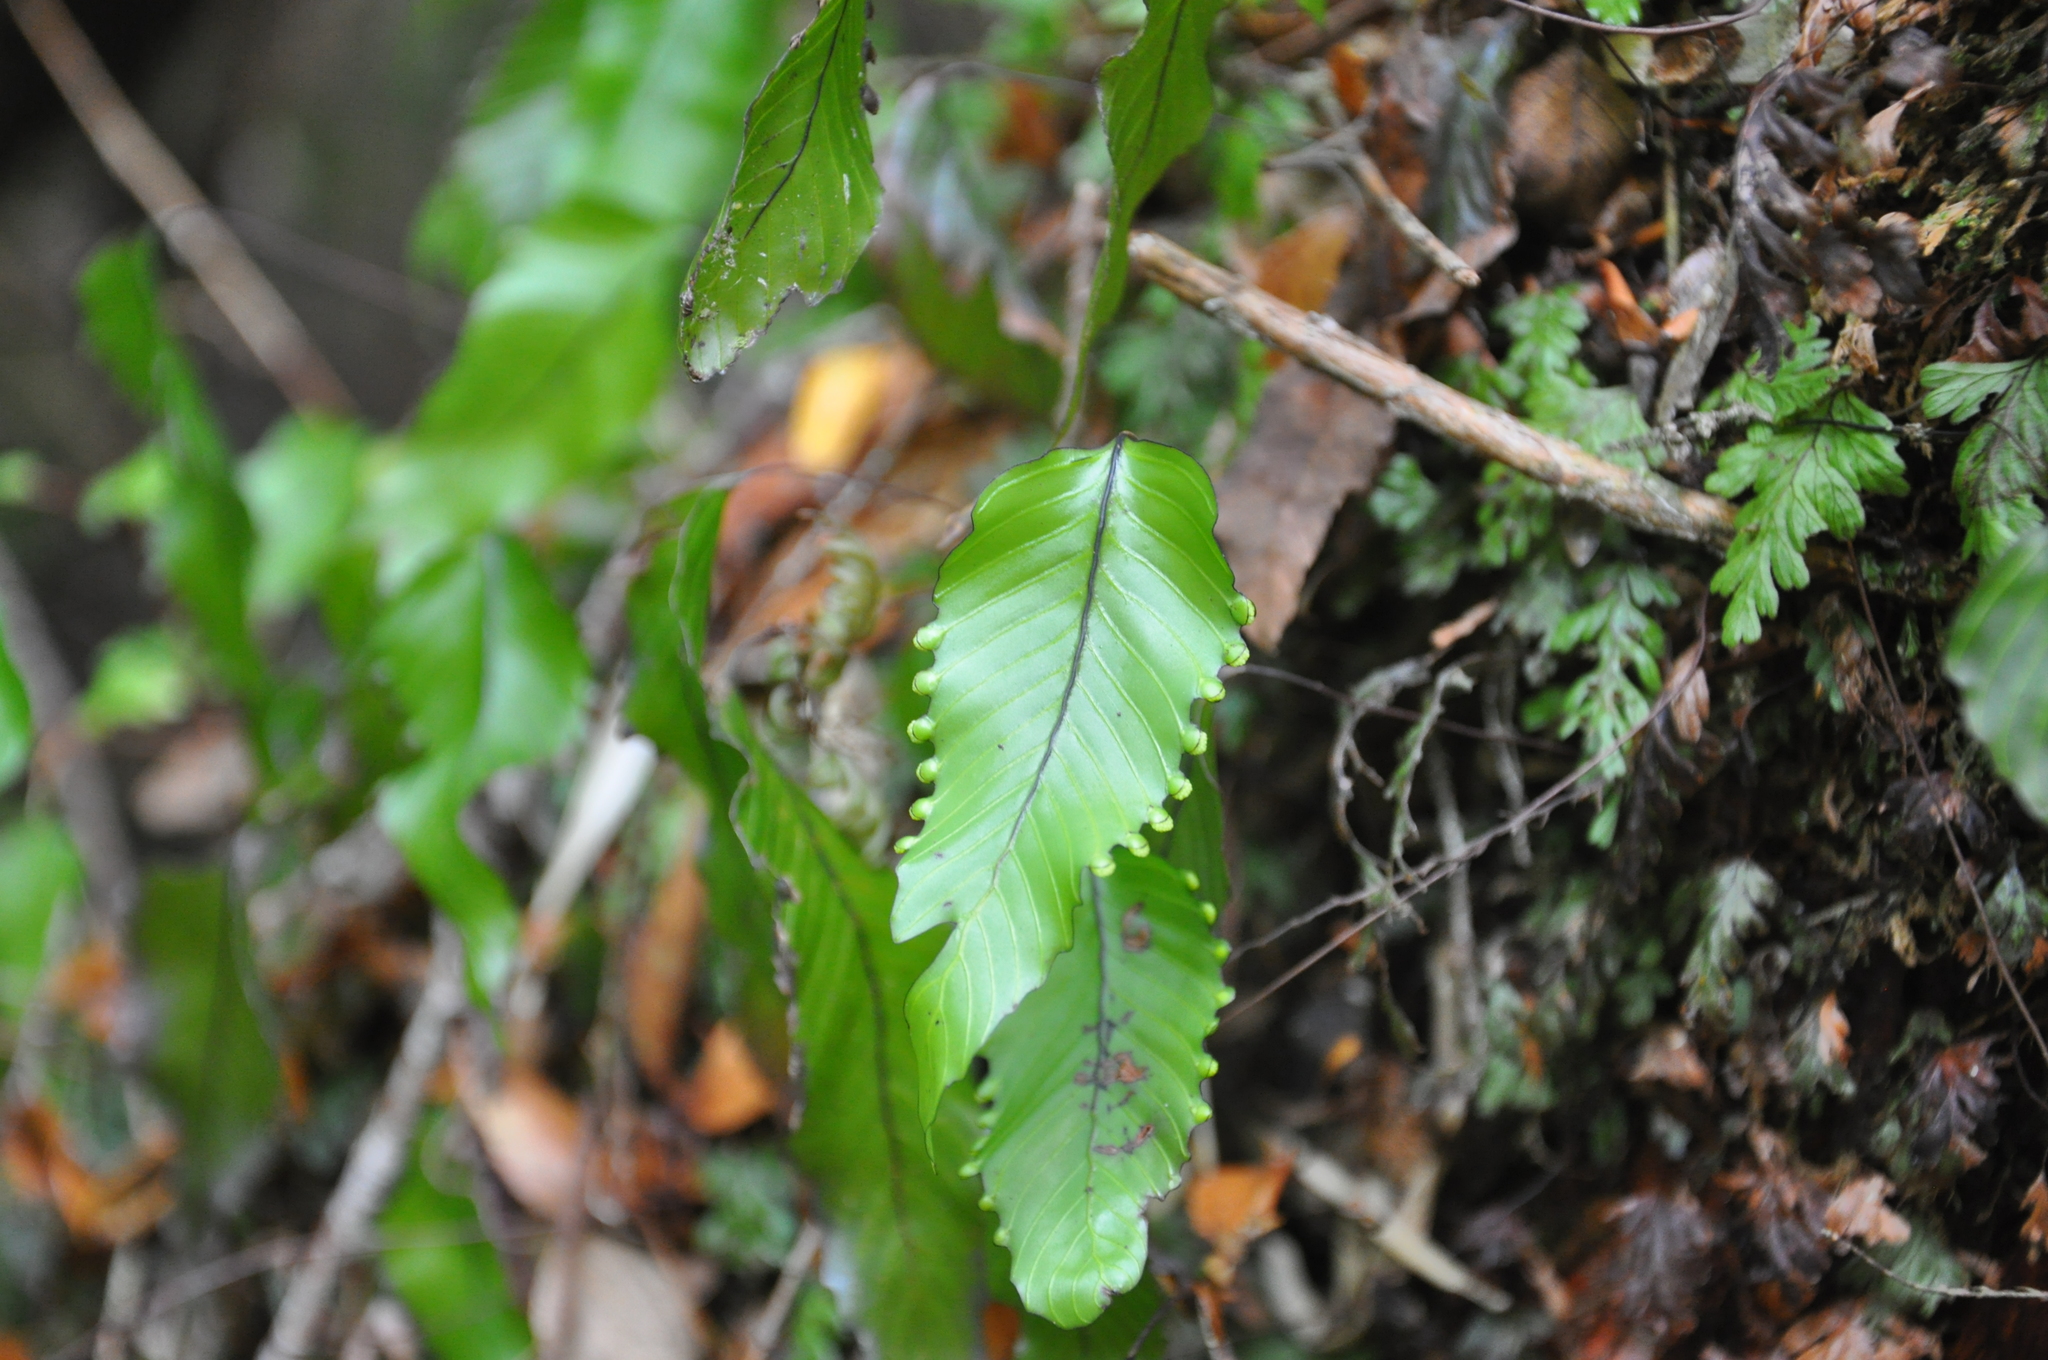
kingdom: Plantae
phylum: Tracheophyta
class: Polypodiopsida
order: Hymenophyllales
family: Hymenophyllaceae
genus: Hymenophyllum
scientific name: Hymenophyllum cruentum
